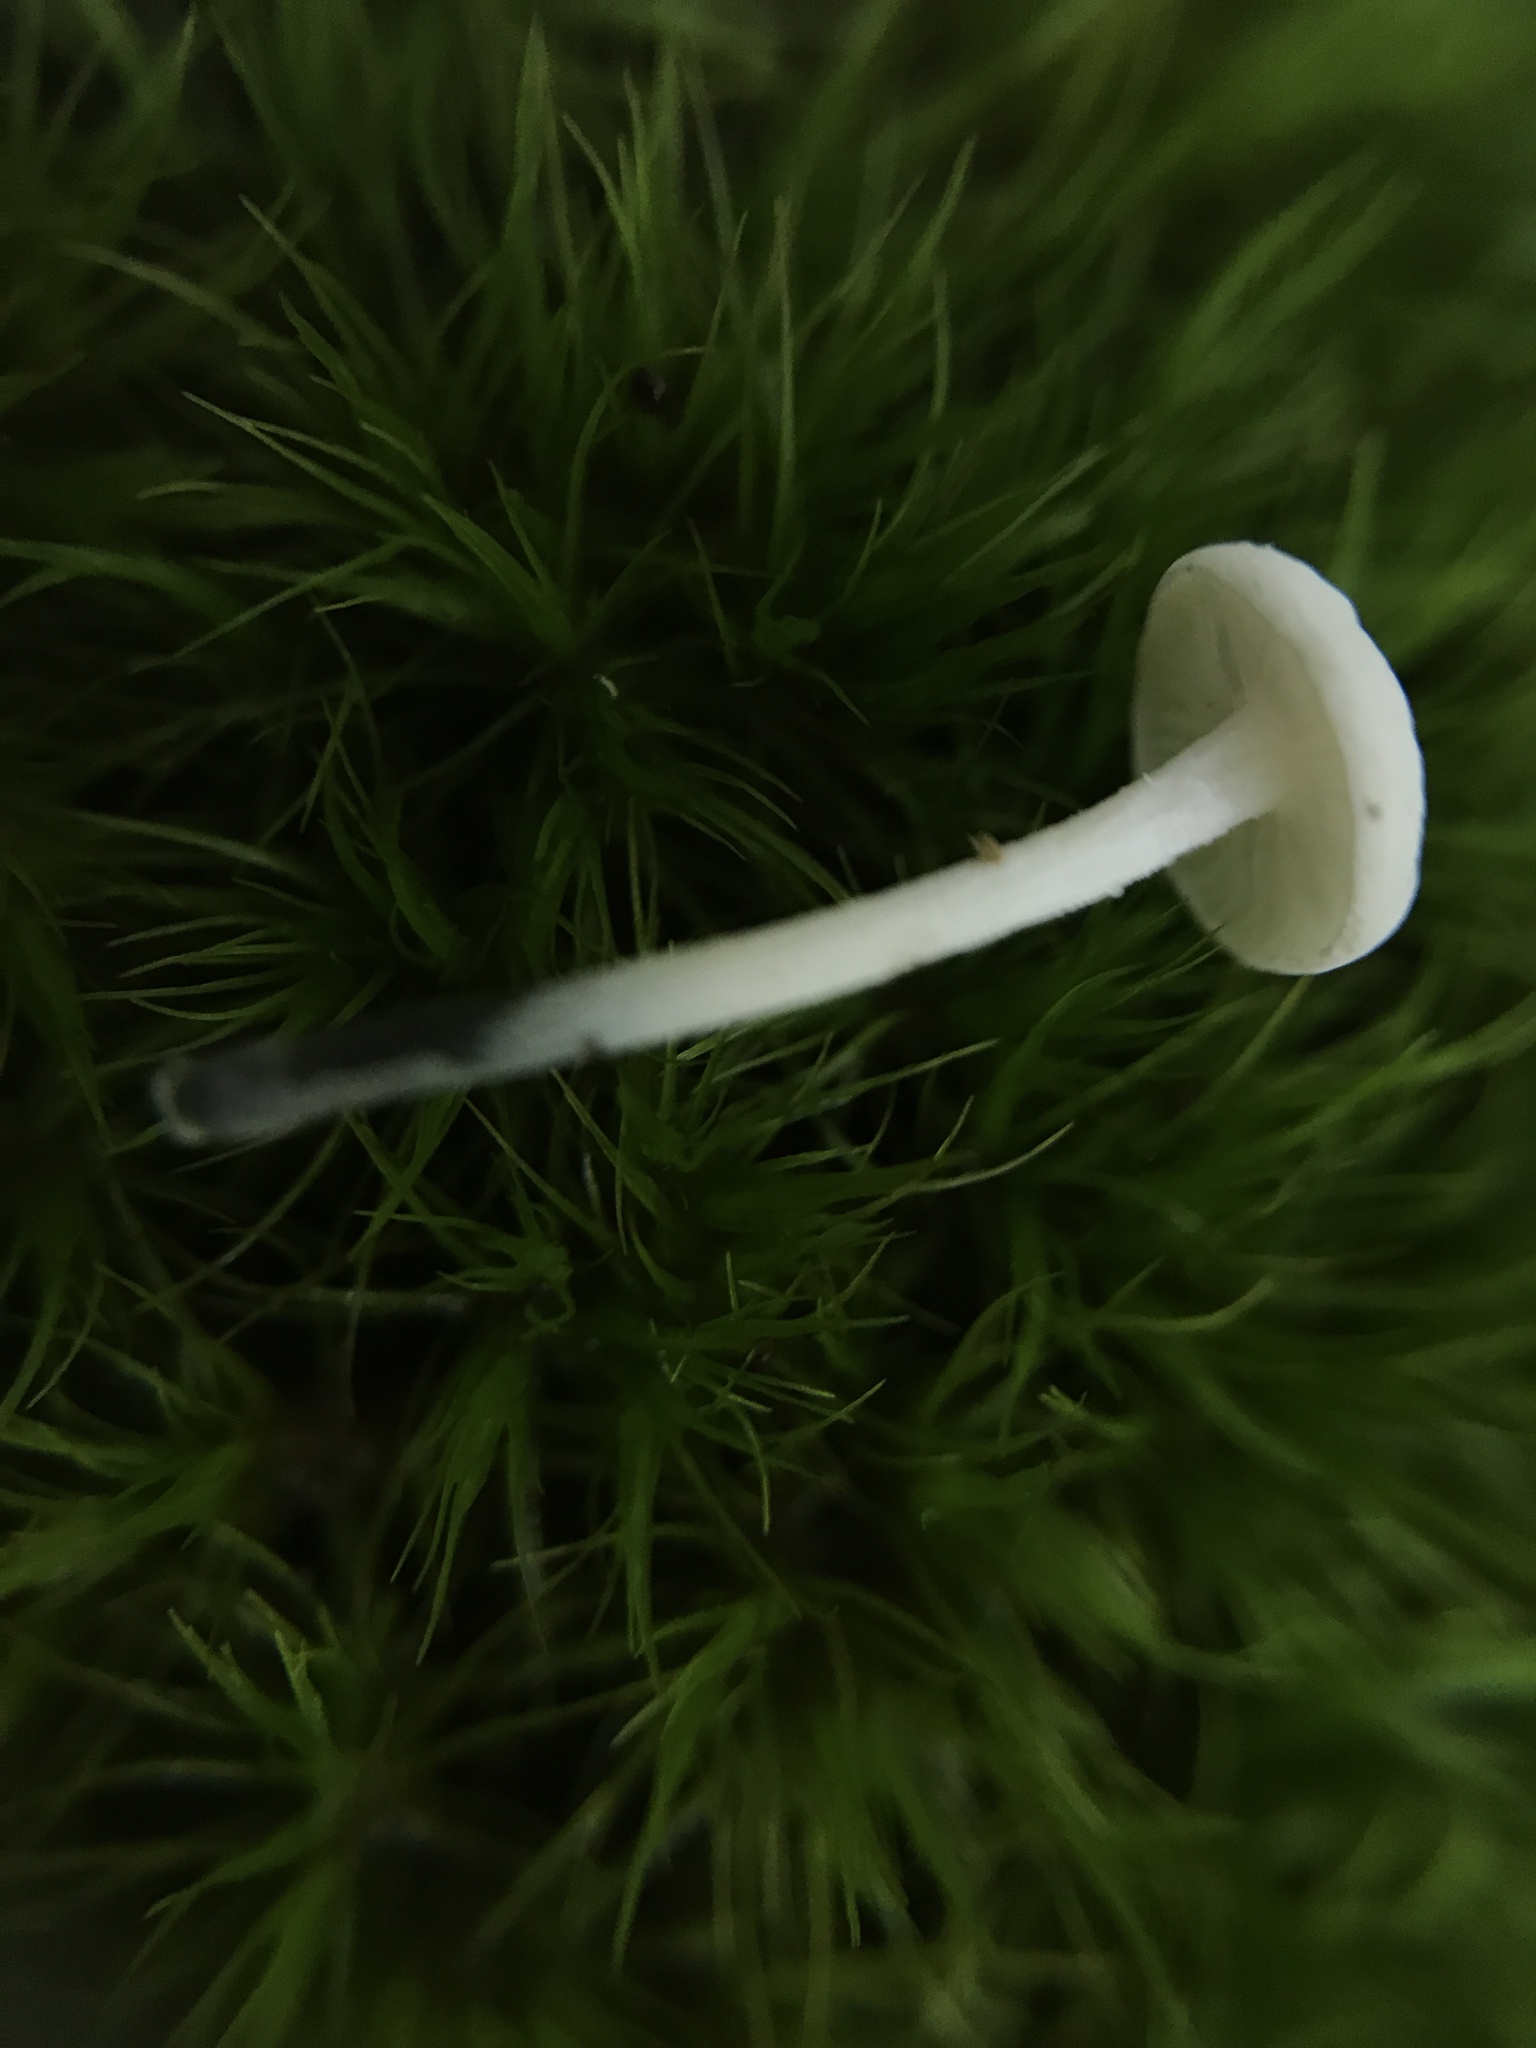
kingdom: Fungi
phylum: Basidiomycota
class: Agaricomycetes
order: Agaricales
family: Marasmiaceae
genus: Tetrapyrgos
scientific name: Tetrapyrgos nigripes
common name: Black-stalked marasmius
